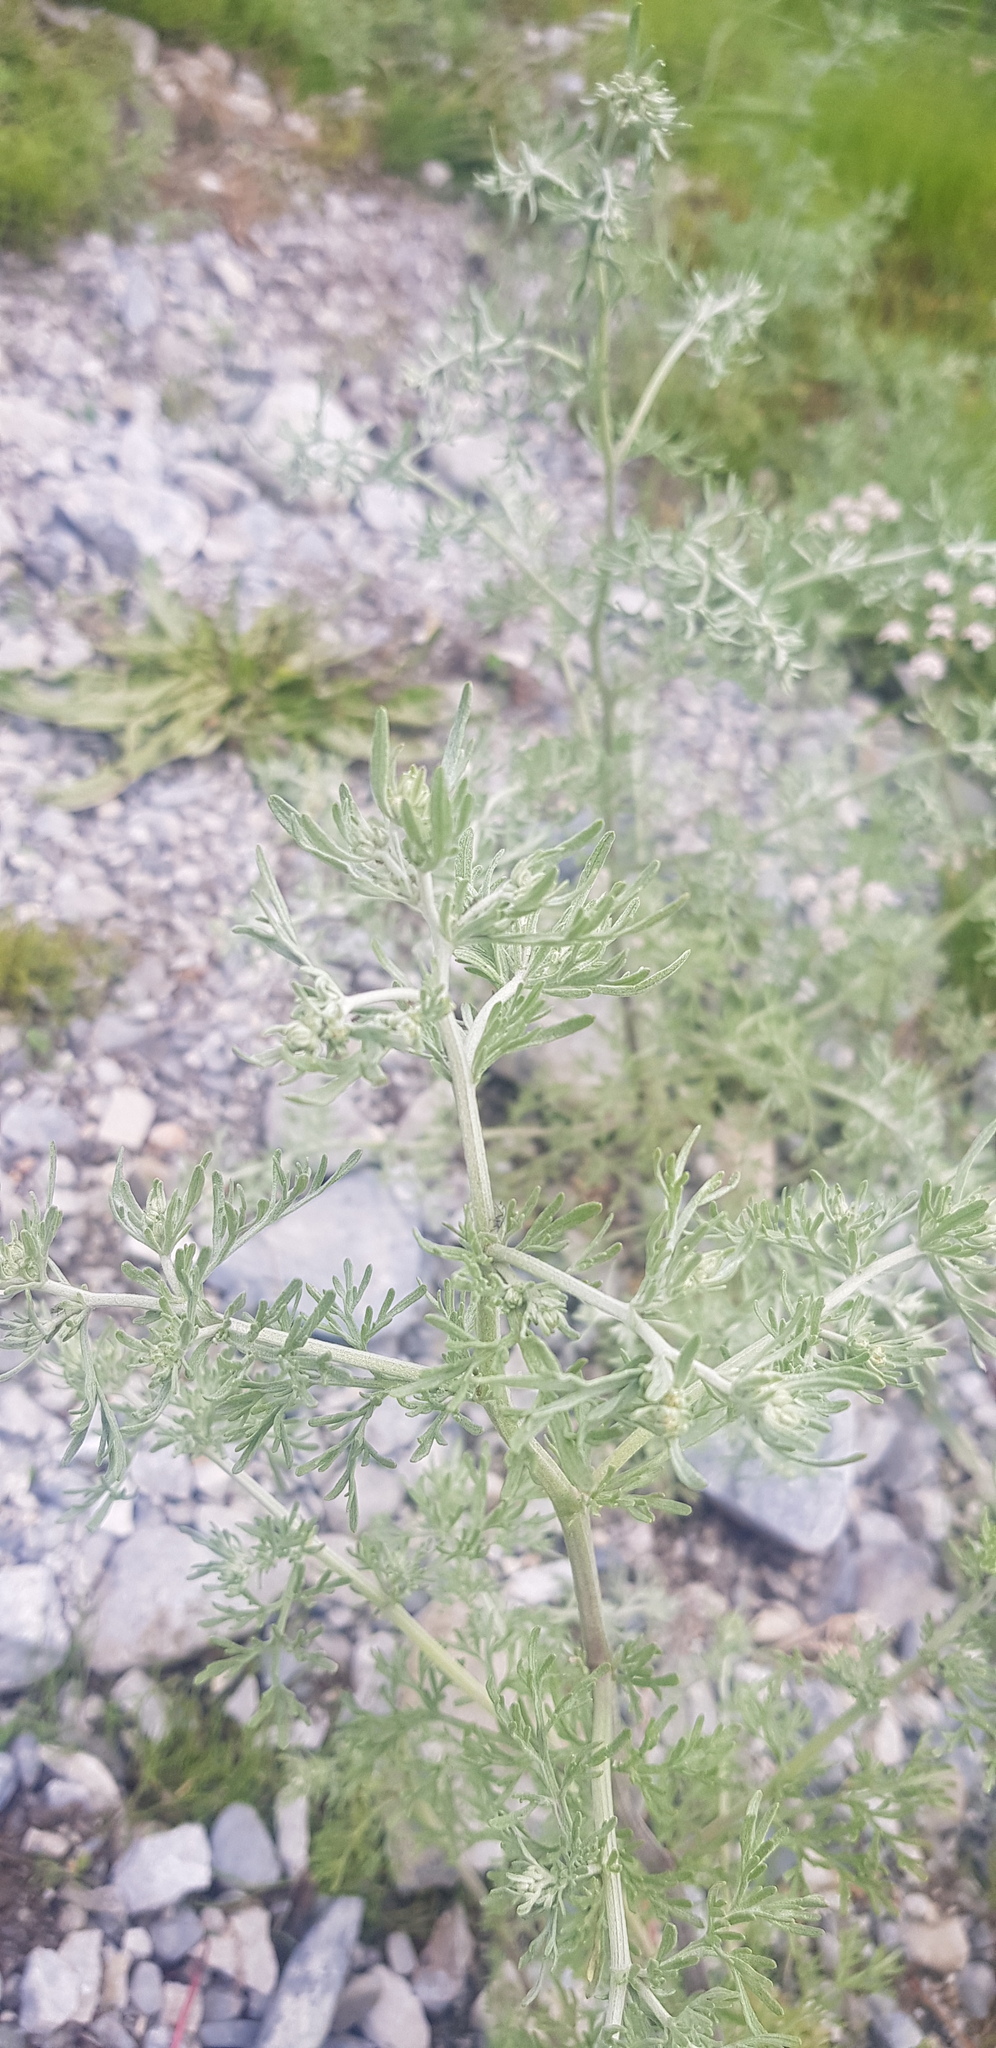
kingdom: Plantae
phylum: Tracheophyta
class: Magnoliopsida
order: Asterales
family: Asteraceae
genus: Artemisia
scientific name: Artemisia sieversiana
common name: Sieversian wormwood
